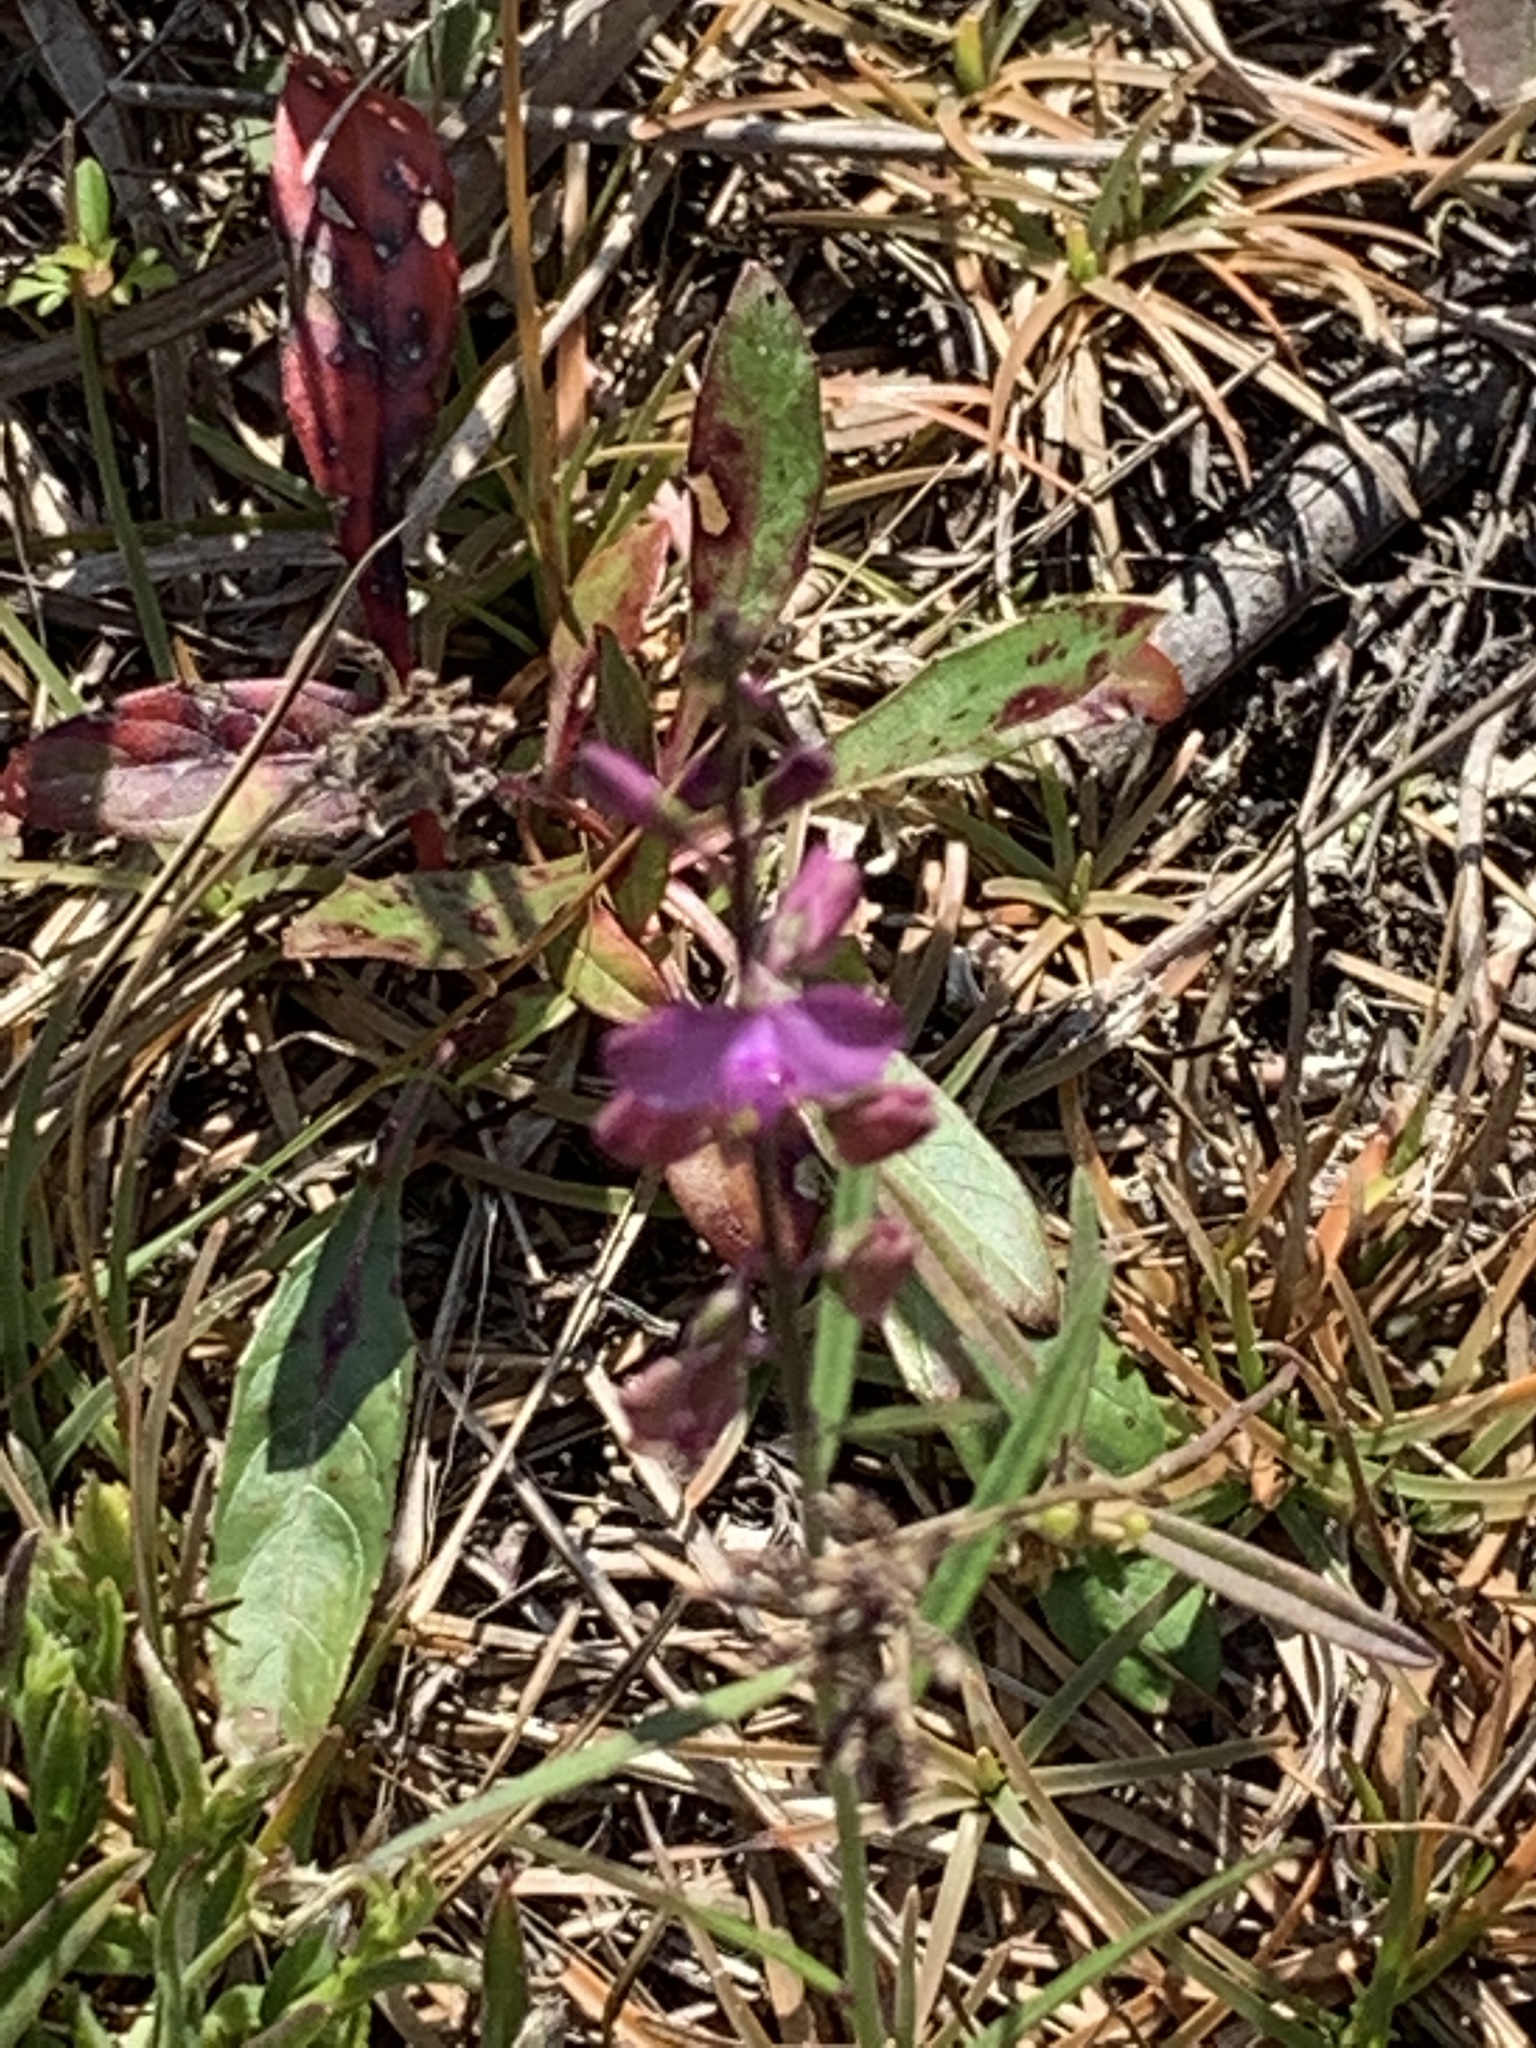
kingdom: Plantae
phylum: Tracheophyta
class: Magnoliopsida
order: Fabales
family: Polygalaceae
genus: Asemeia
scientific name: Asemeia grandiflora
